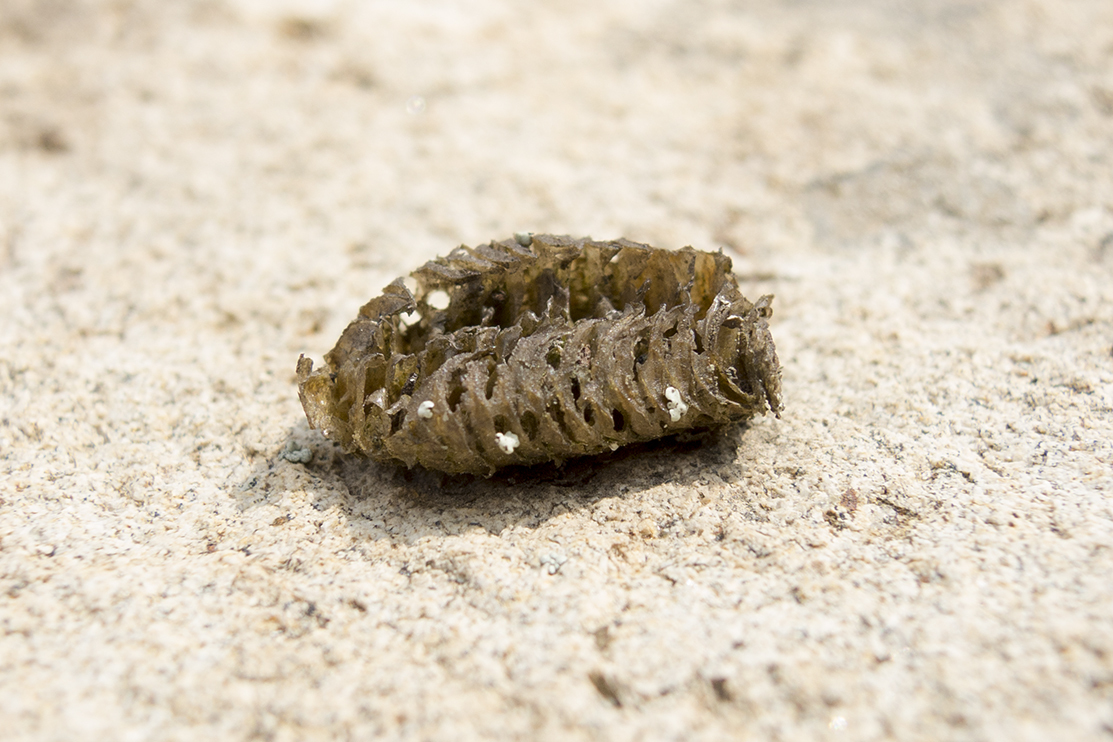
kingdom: Animalia
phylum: Arthropoda
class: Insecta
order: Mantodea
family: Mantidae
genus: Mantis
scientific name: Mantis religiosa
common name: Praying mantis
